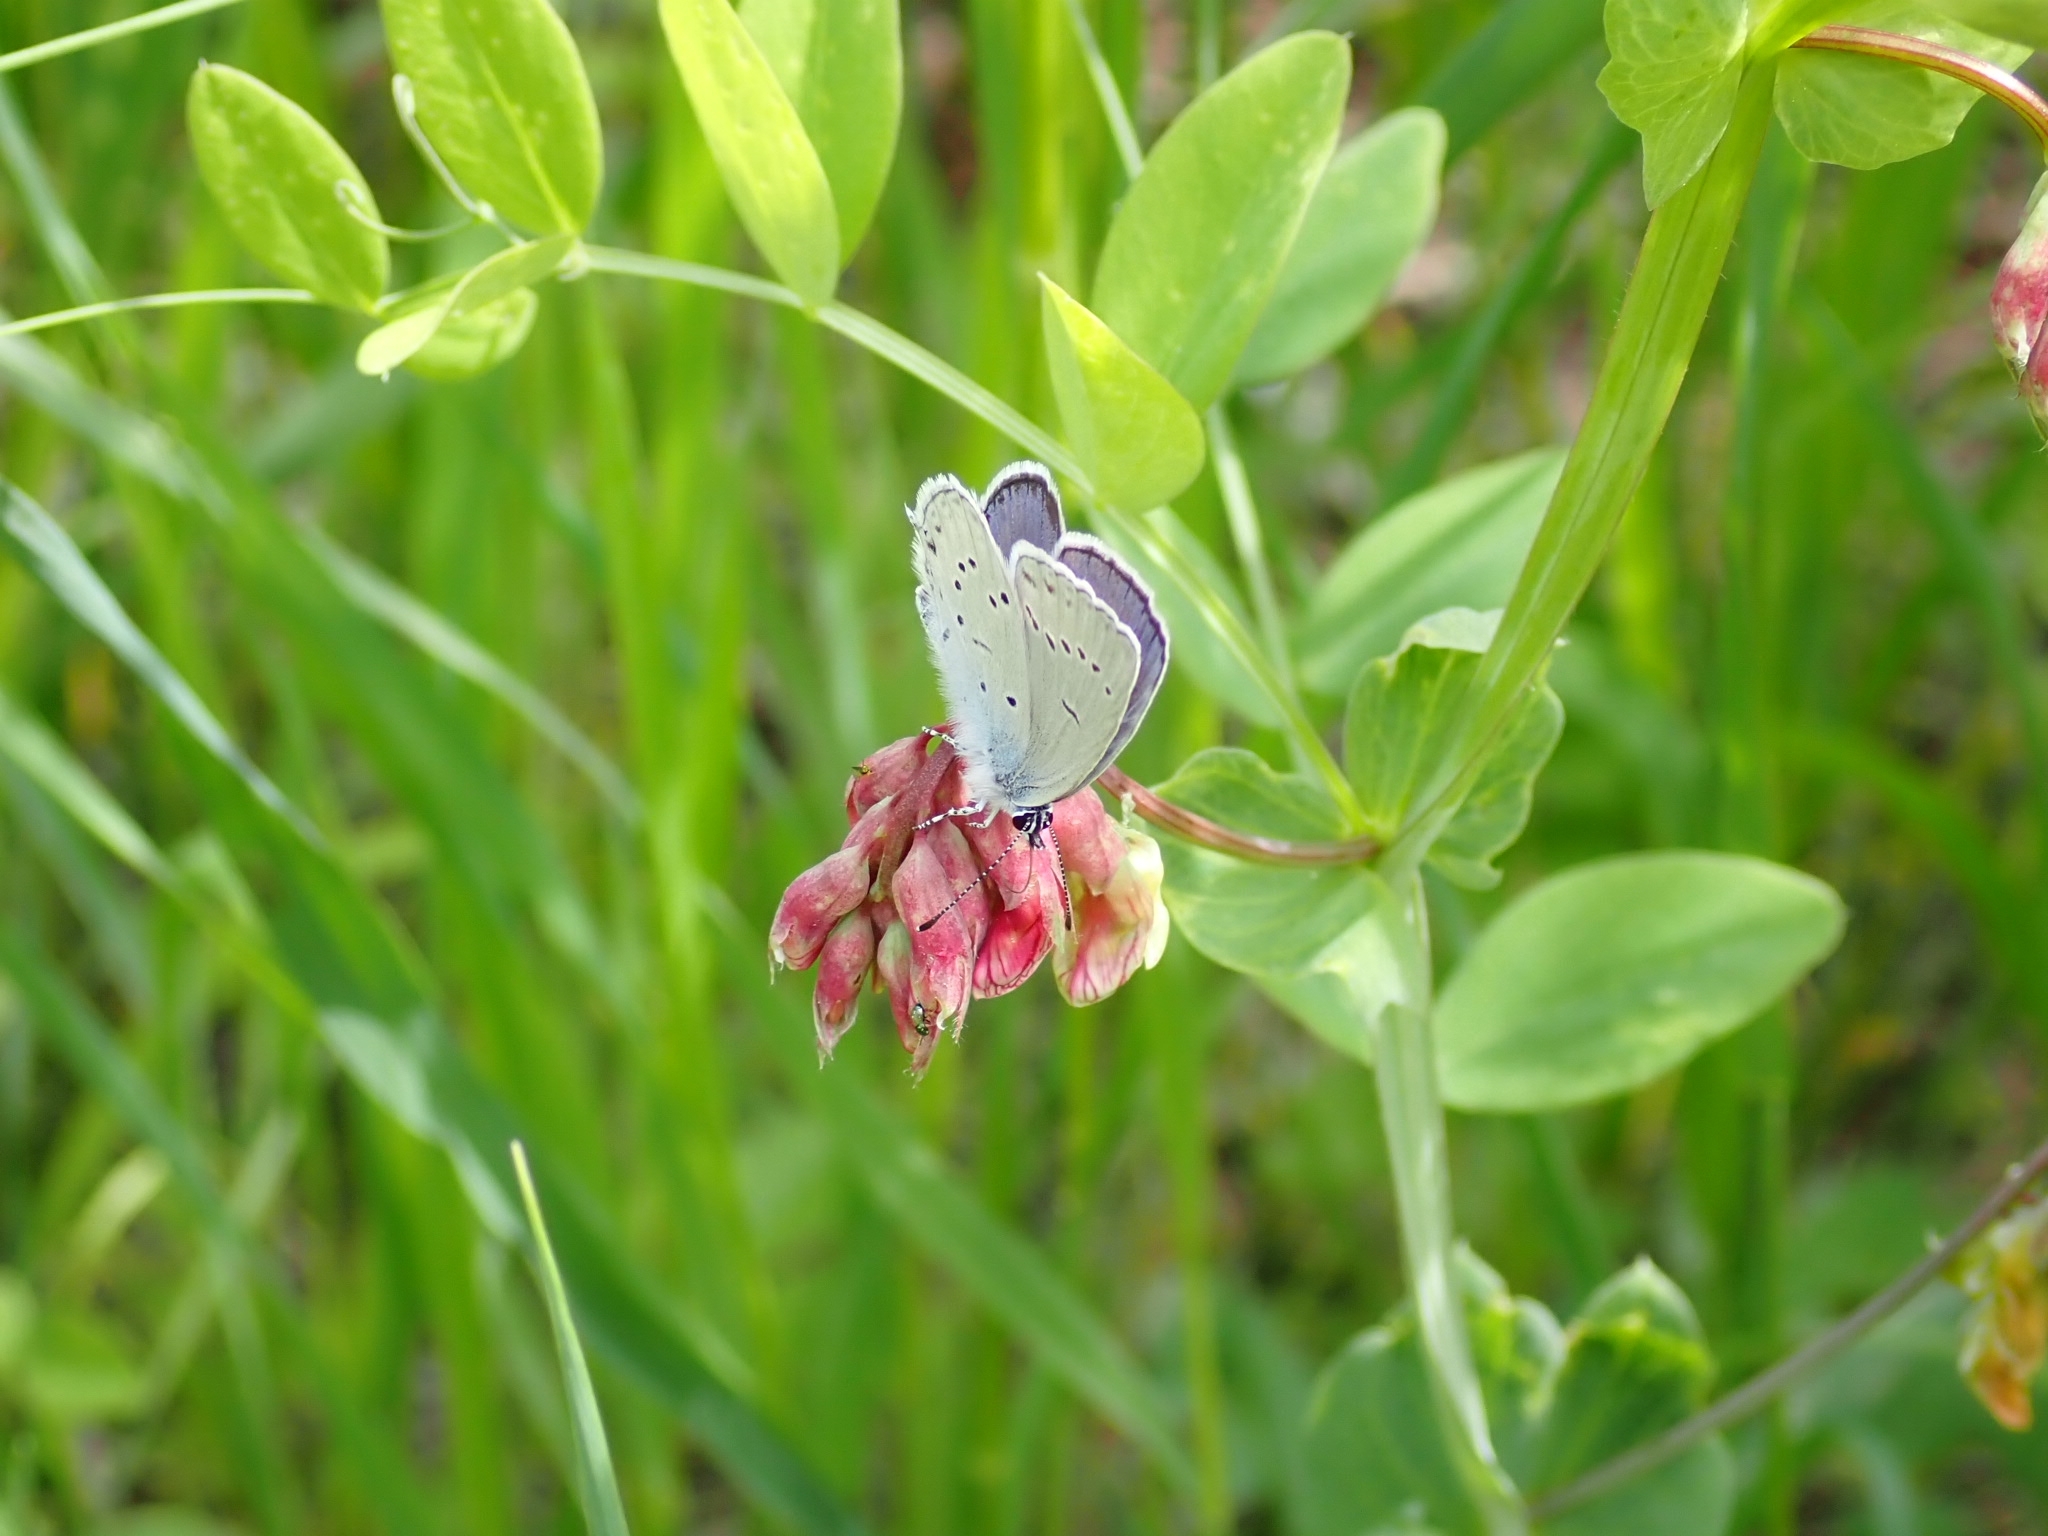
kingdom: Animalia
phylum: Arthropoda
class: Insecta
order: Lepidoptera
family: Lycaenidae
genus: Elkalyce
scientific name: Elkalyce alcetas
